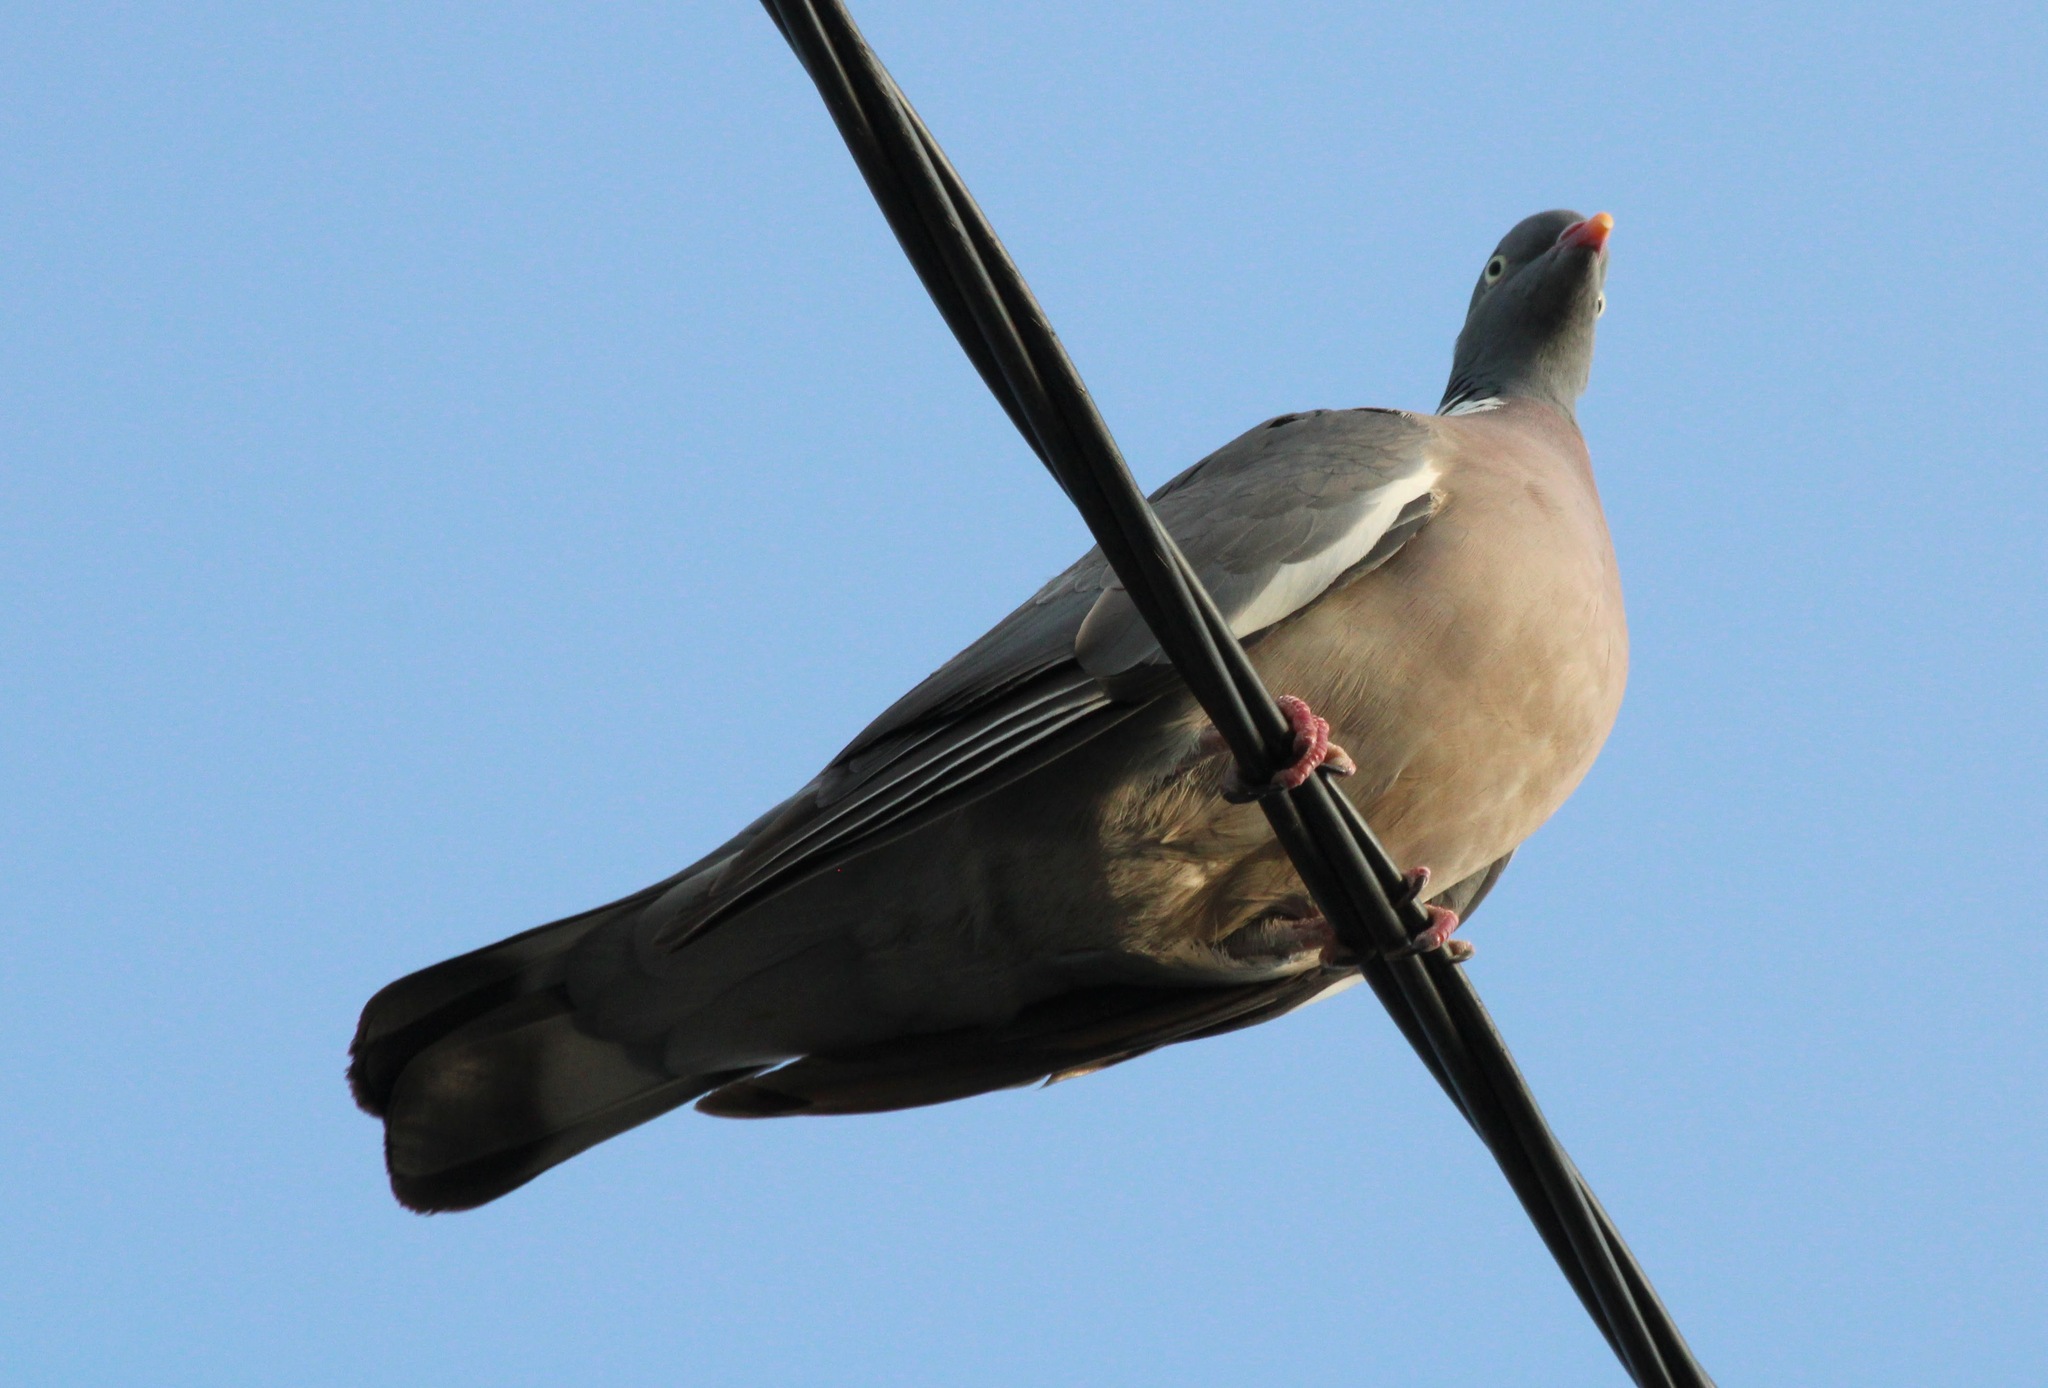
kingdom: Animalia
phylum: Chordata
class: Aves
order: Columbiformes
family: Columbidae
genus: Columba
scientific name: Columba palumbus
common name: Common wood pigeon
